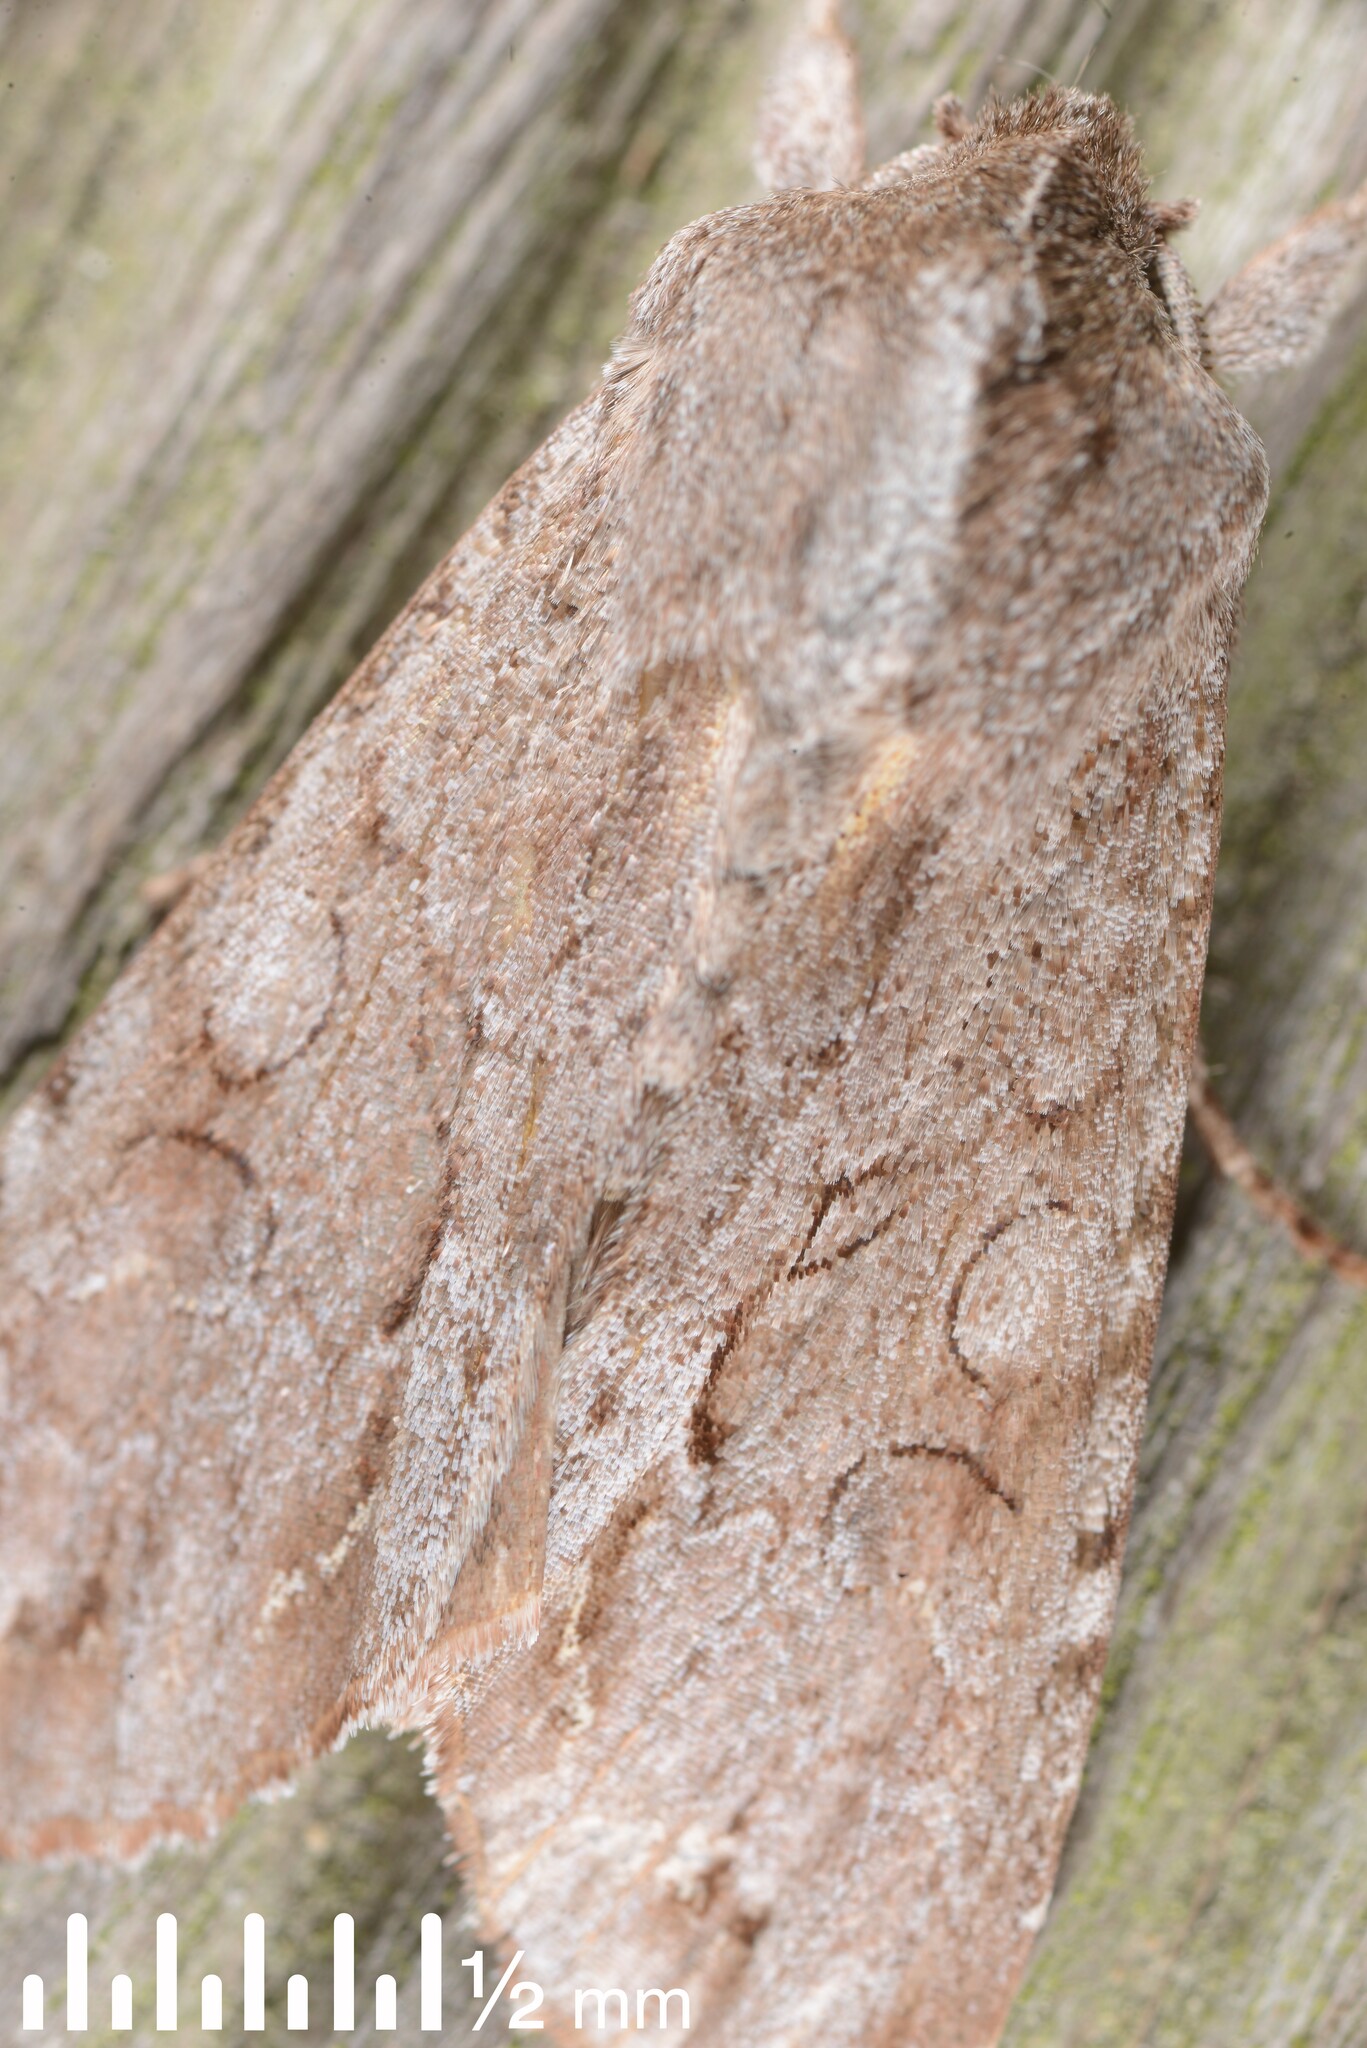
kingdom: Animalia
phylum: Arthropoda
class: Insecta
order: Lepidoptera
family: Noctuidae
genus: Ichneutica
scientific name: Ichneutica
